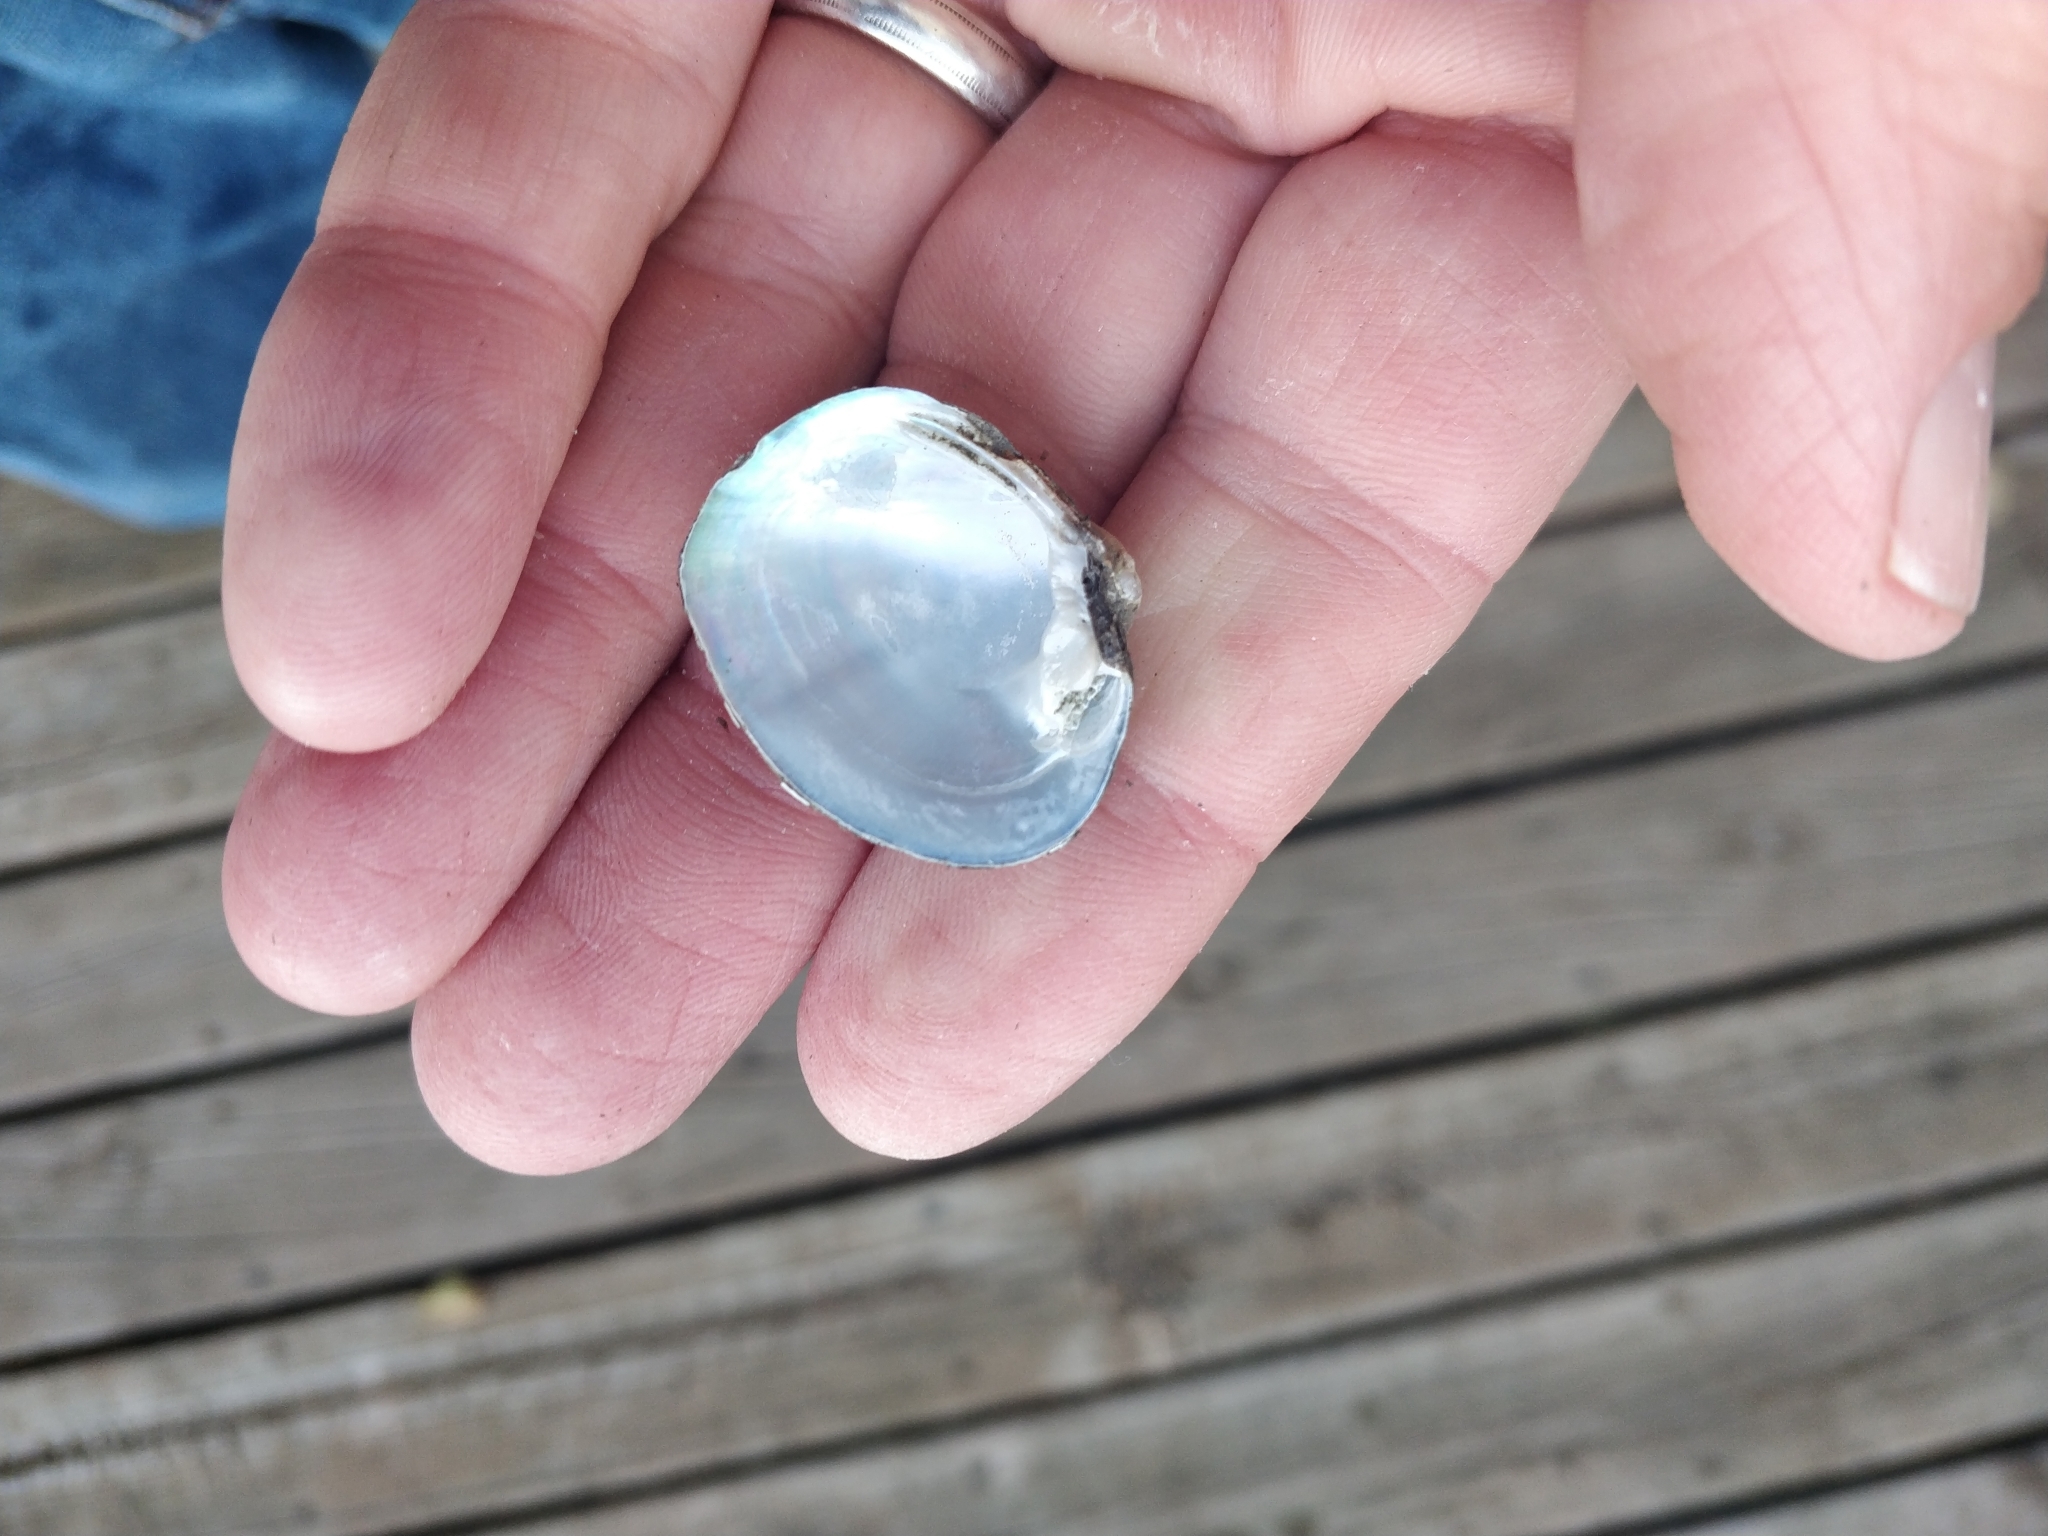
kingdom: Animalia
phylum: Mollusca
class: Bivalvia
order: Unionida
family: Unionidae
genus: Cyclonaias
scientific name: Cyclonaias pustulosa
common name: Pimpleback
